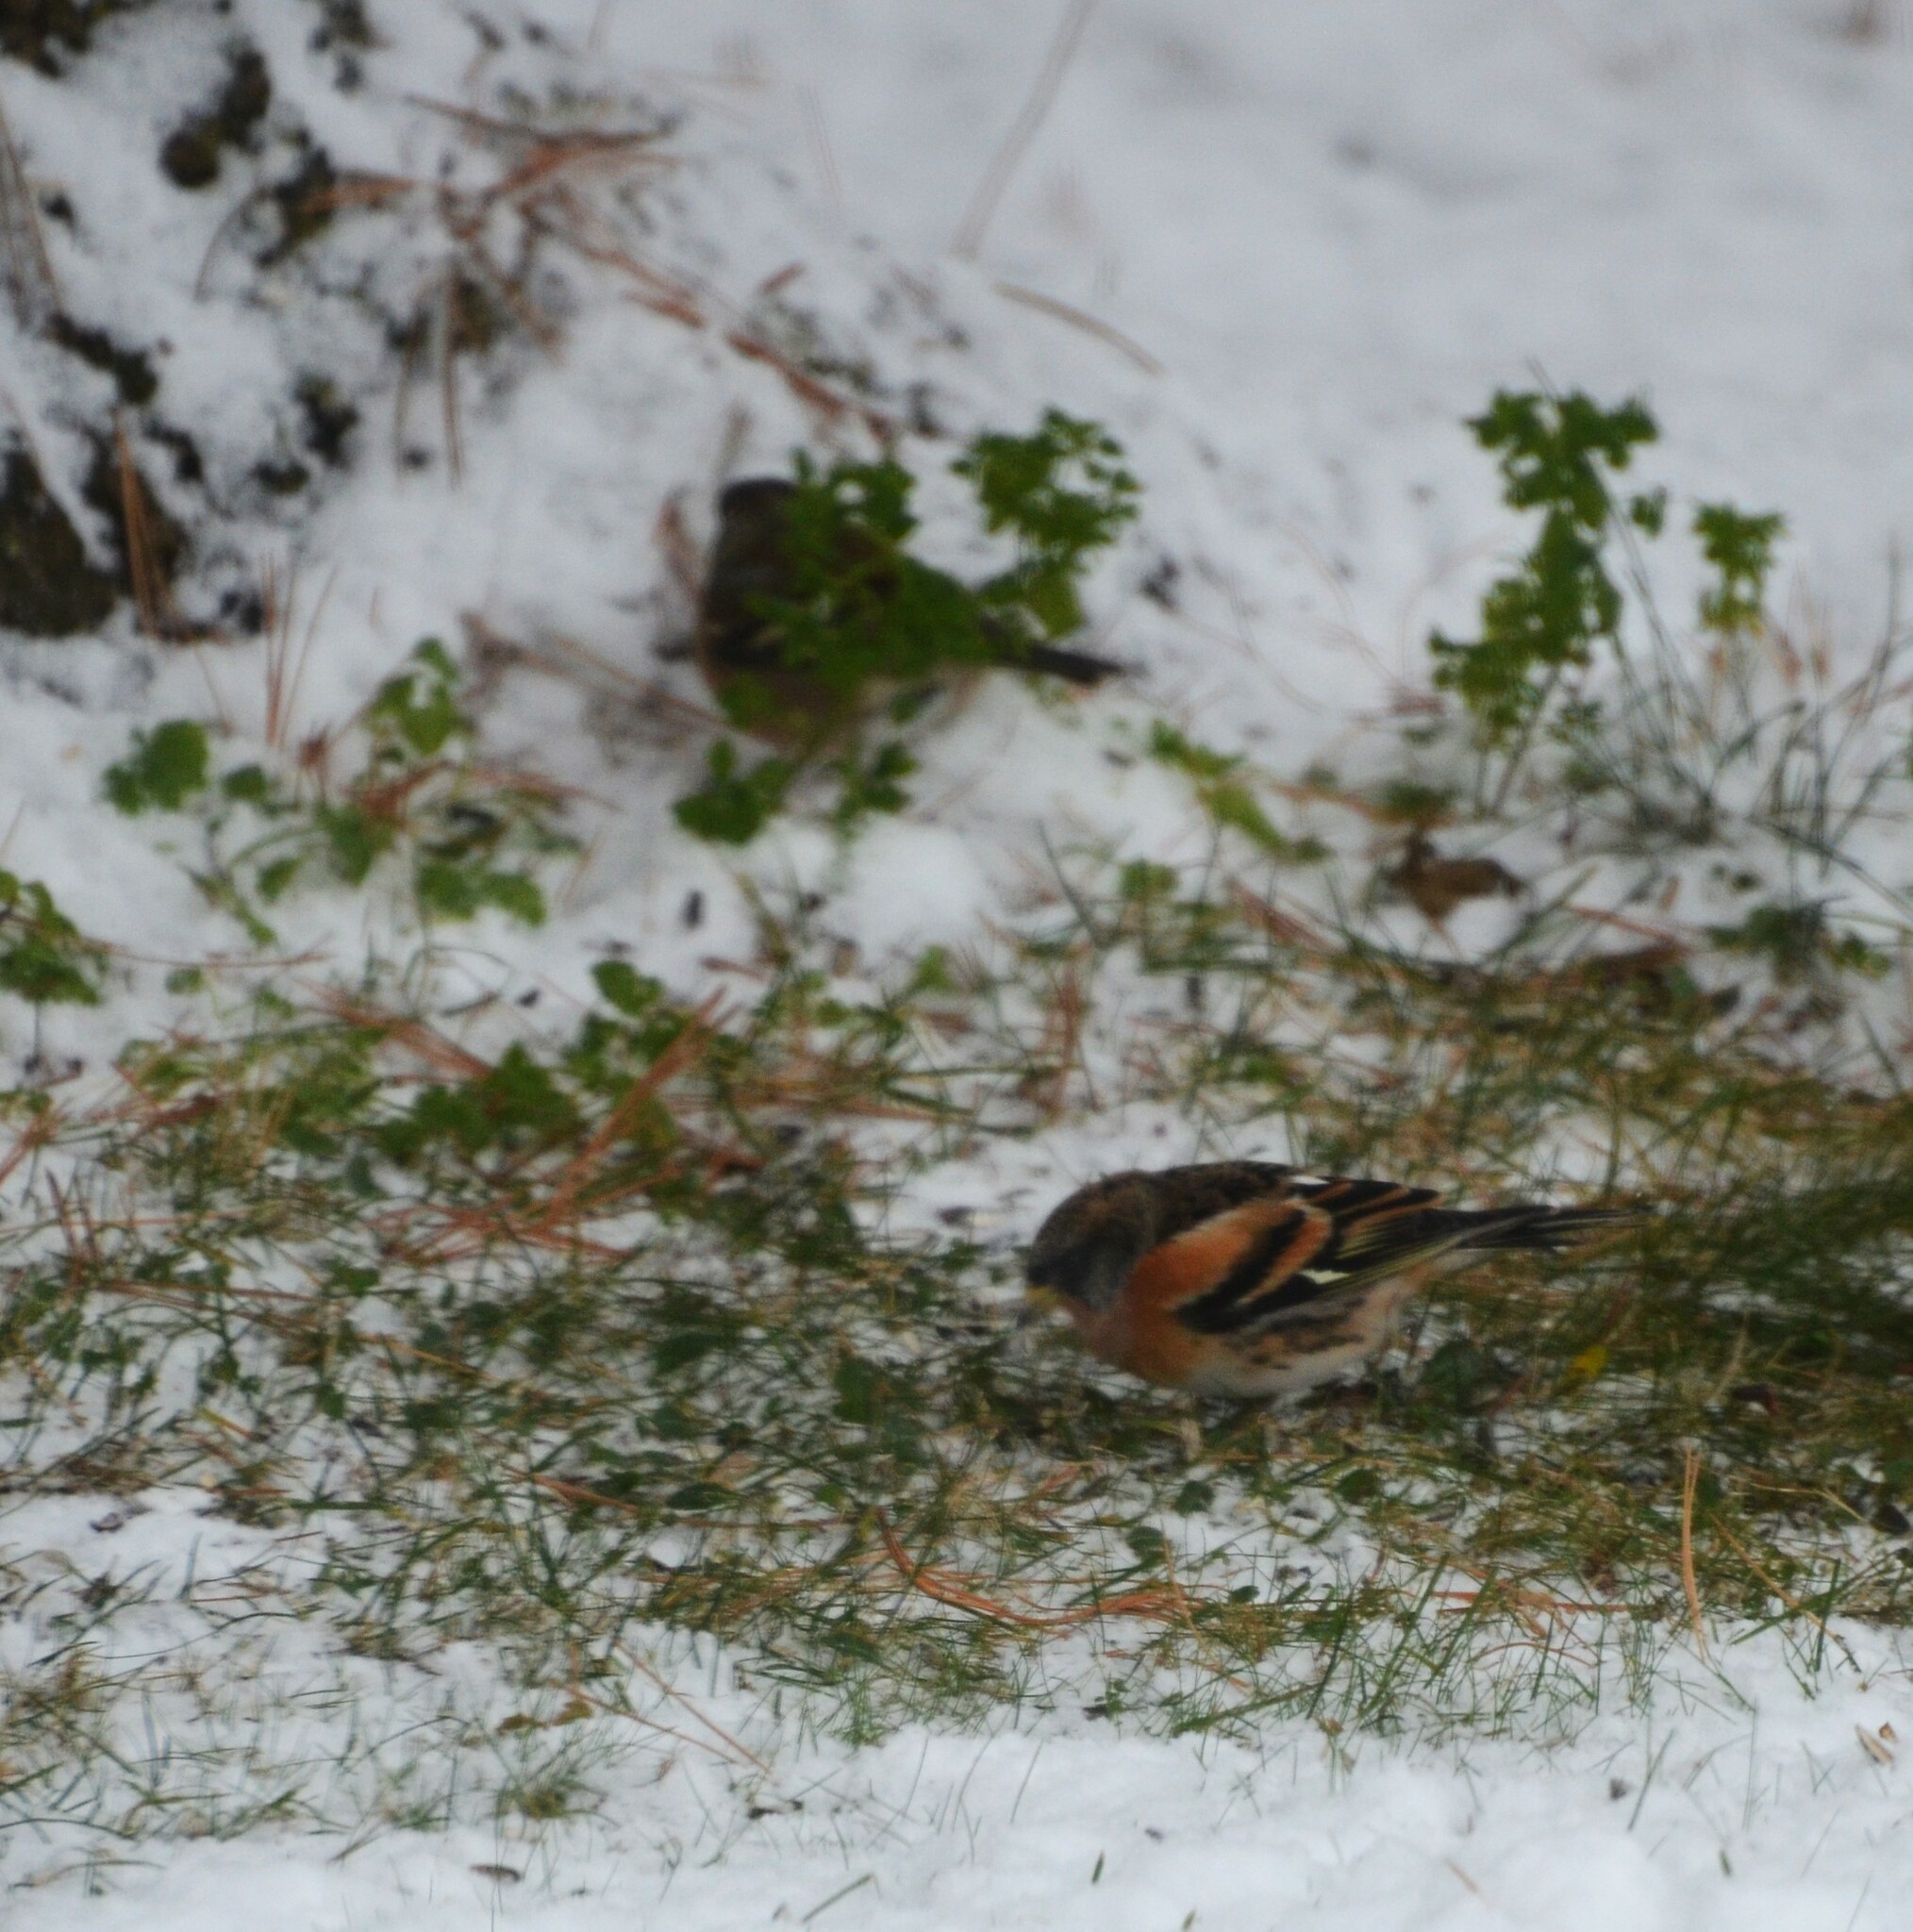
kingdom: Animalia
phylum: Chordata
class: Aves
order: Passeriformes
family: Fringillidae
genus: Fringilla
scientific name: Fringilla montifringilla
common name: Brambling
